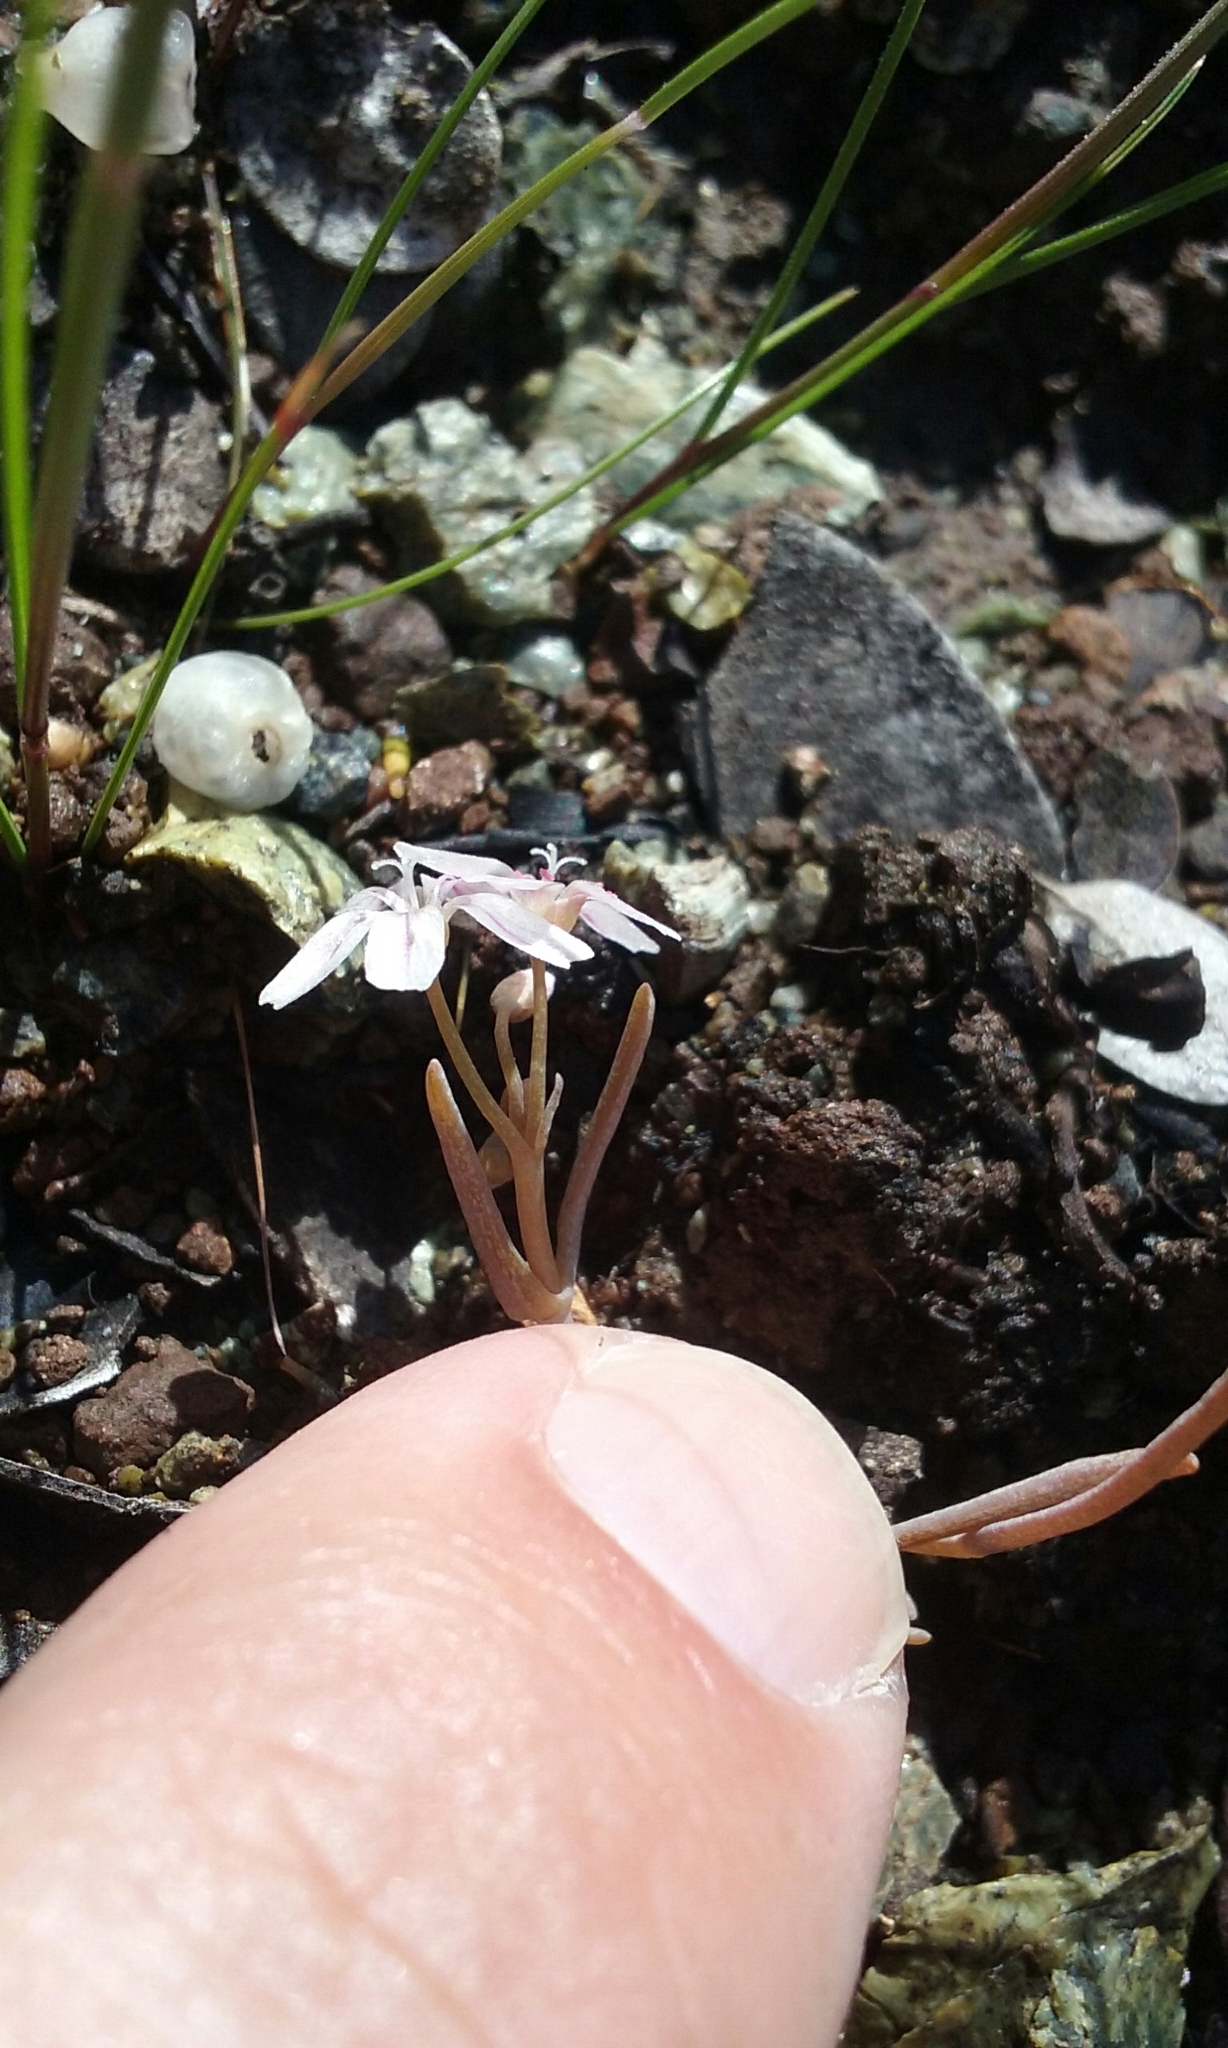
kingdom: Plantae
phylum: Tracheophyta
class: Magnoliopsida
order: Caryophyllales
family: Montiaceae
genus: Claytonia
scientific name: Claytonia exigua
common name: Pale spring beauty
